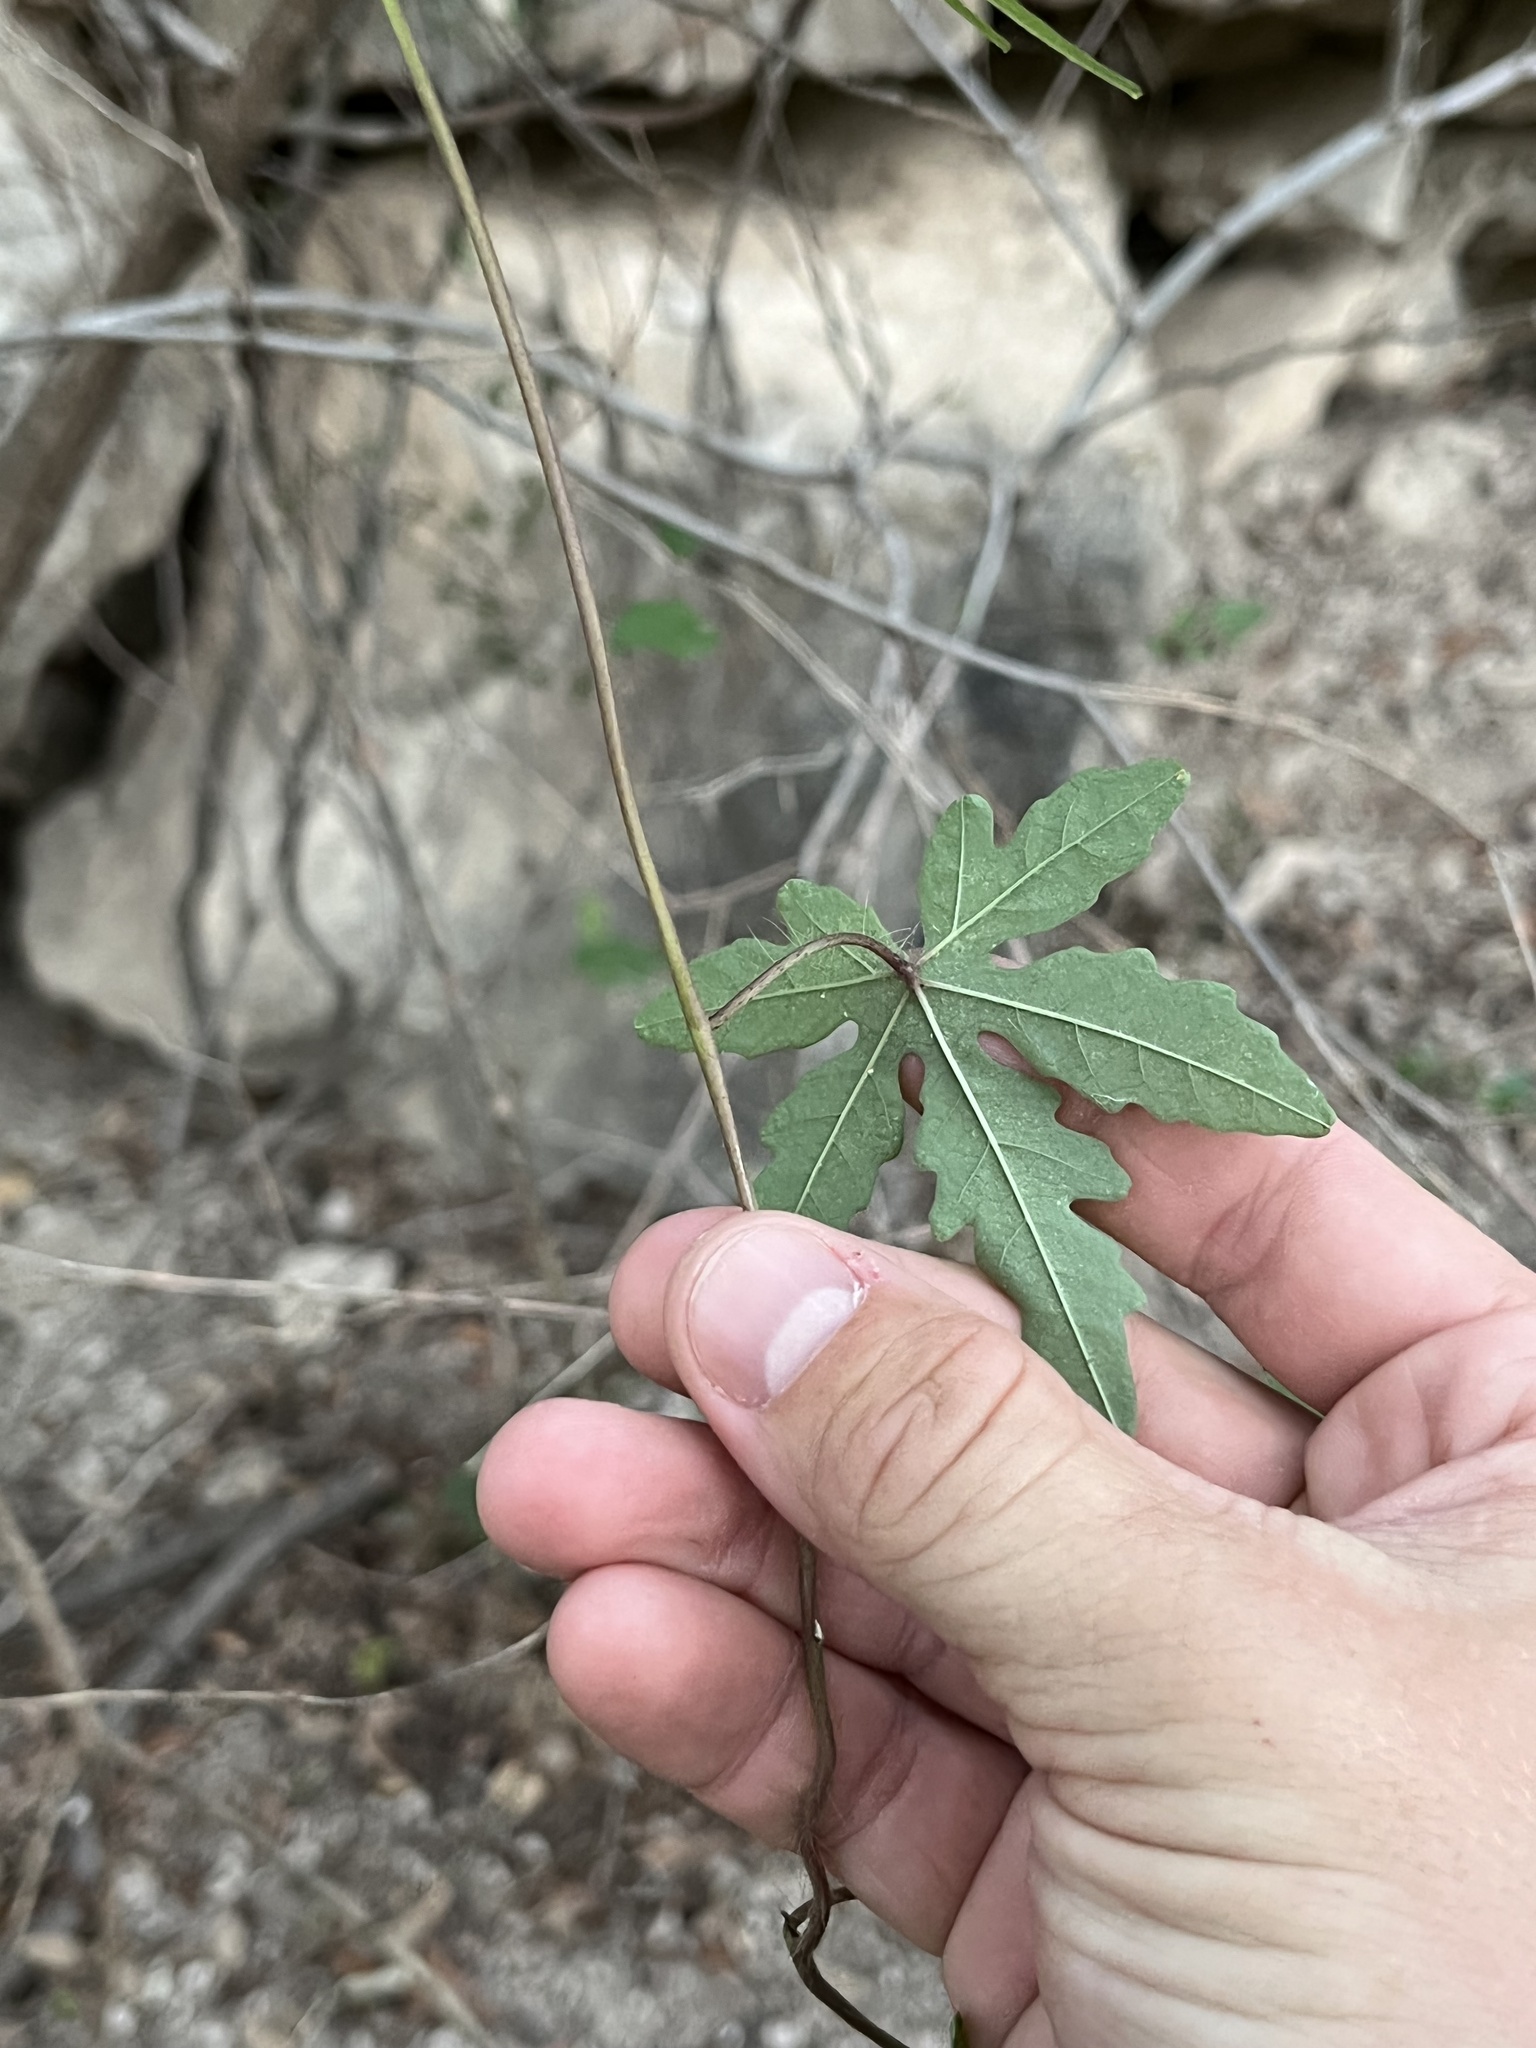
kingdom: Plantae
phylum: Tracheophyta
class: Magnoliopsida
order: Solanales
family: Convolvulaceae
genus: Distimake
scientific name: Distimake dissectus
